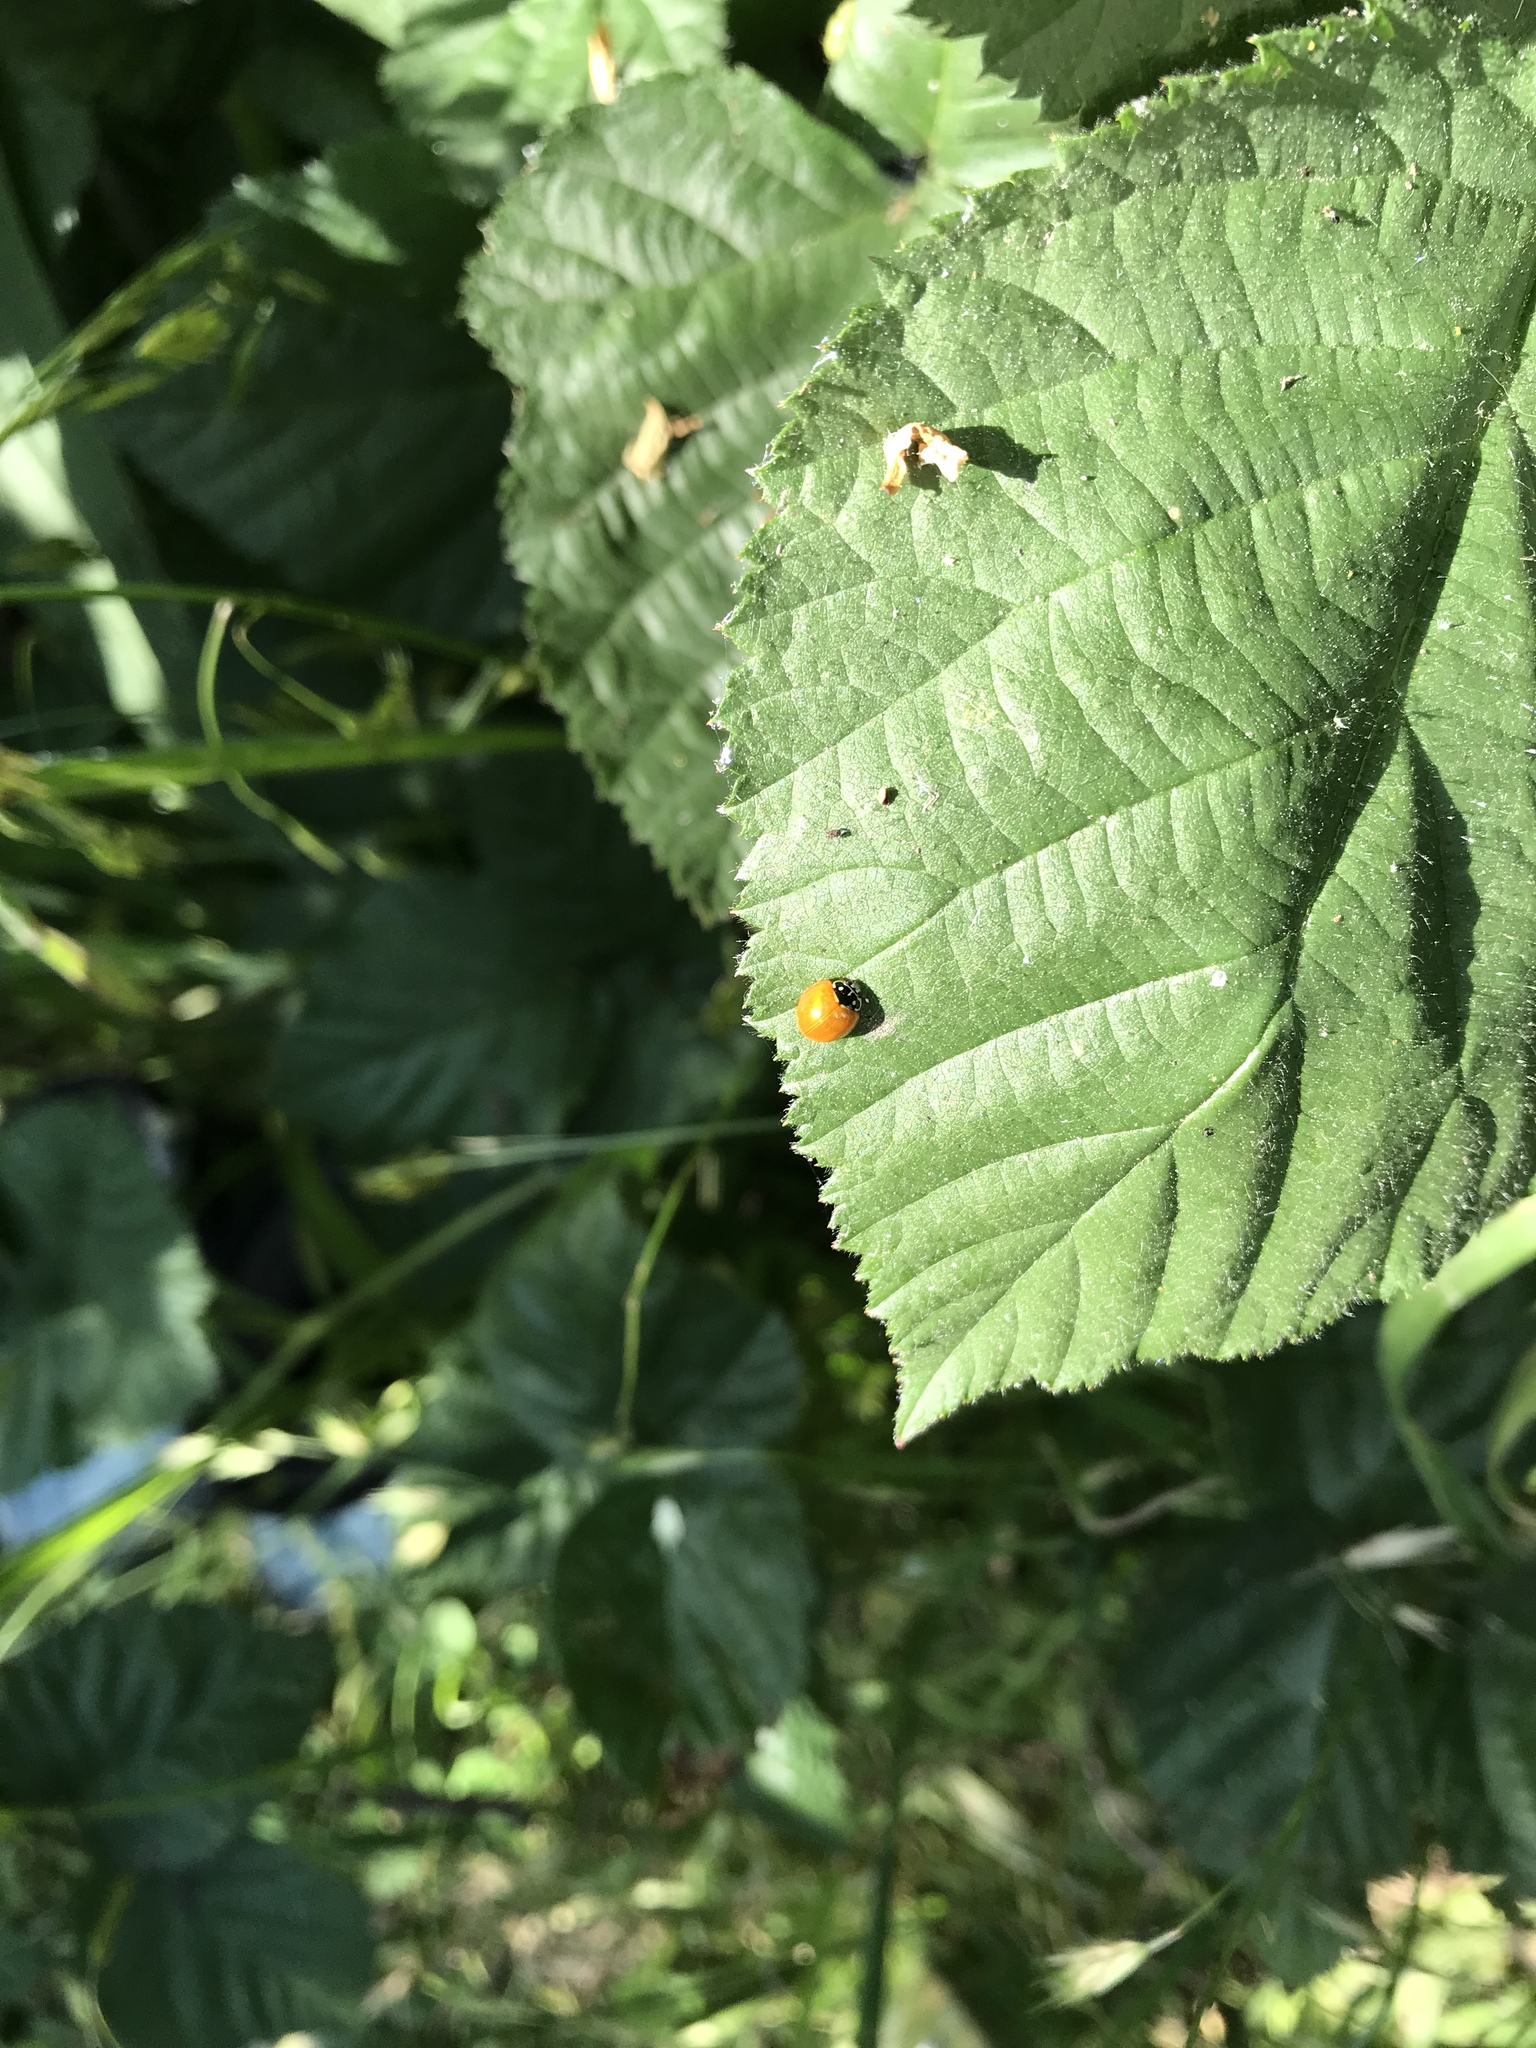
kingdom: Animalia
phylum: Arthropoda
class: Insecta
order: Coleoptera
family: Coccinellidae
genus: Cycloneda
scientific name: Cycloneda sanguinea
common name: Ladybird beetle
